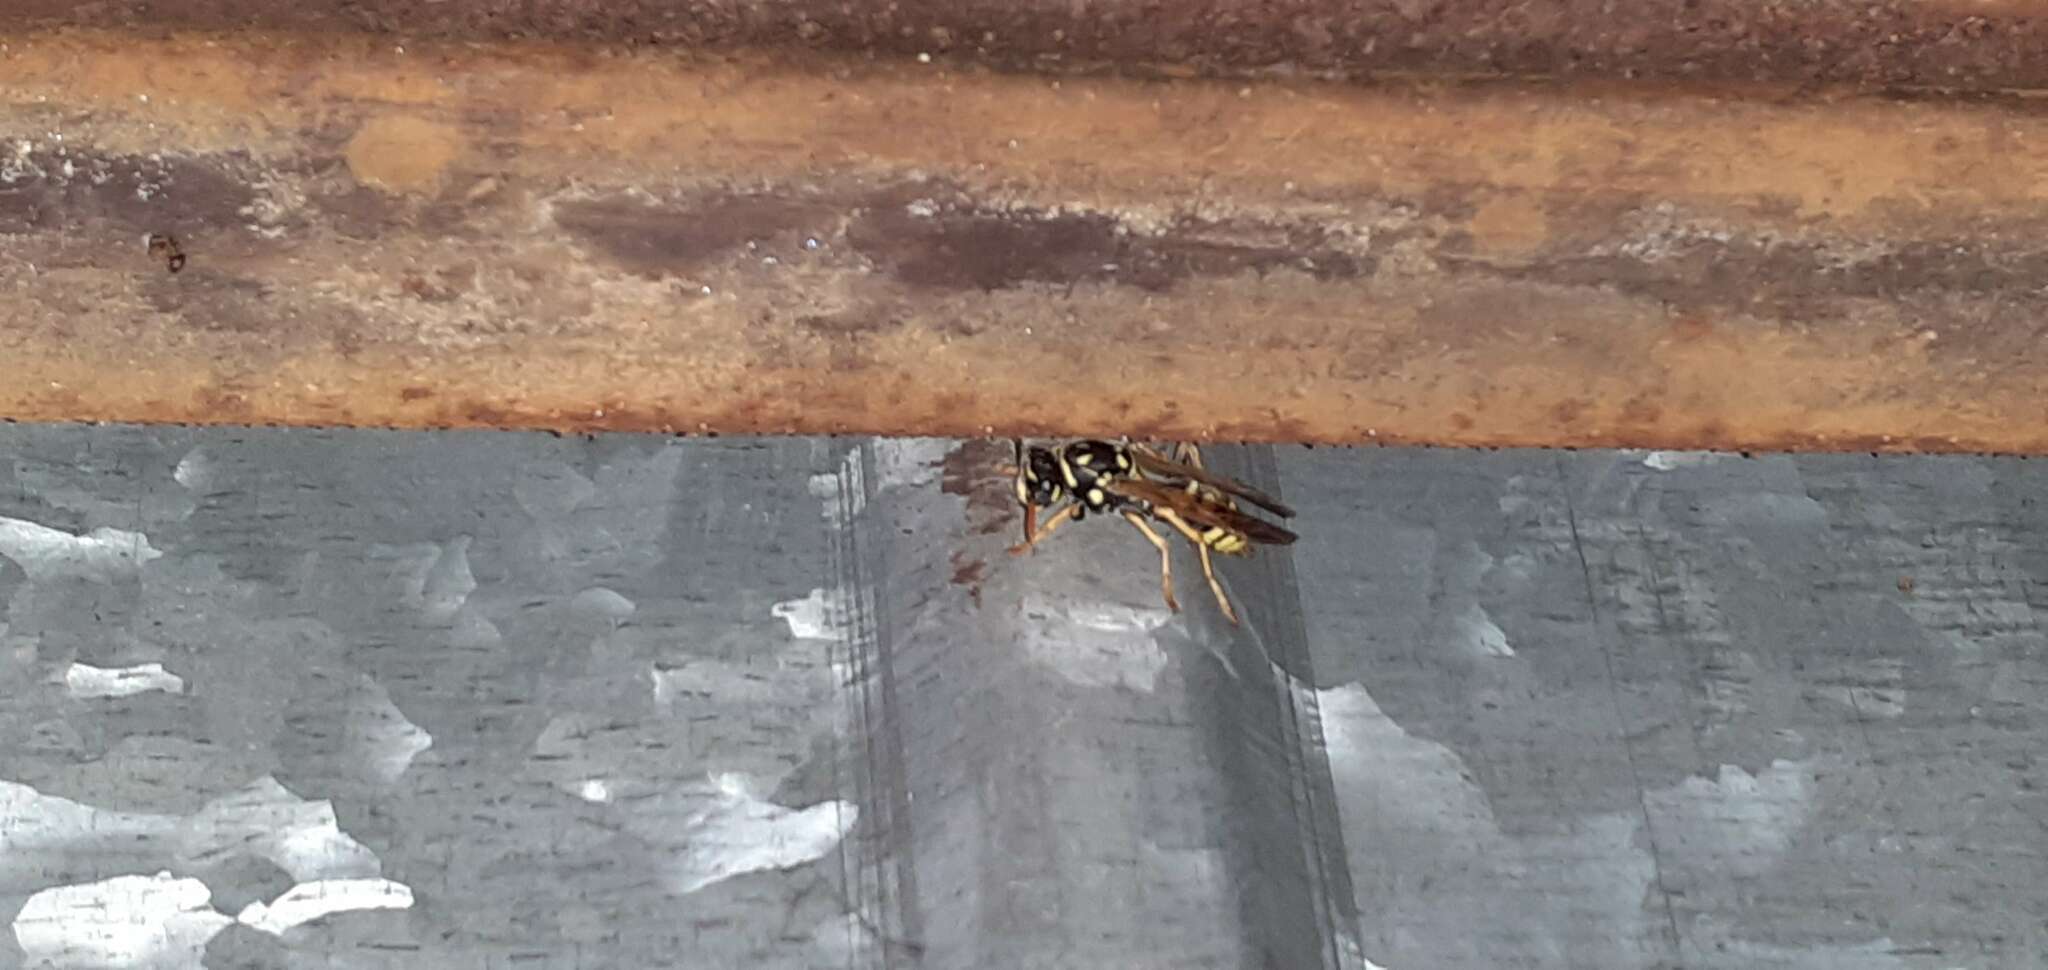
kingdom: Animalia
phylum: Arthropoda
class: Insecta
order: Hymenoptera
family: Eumenidae
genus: Polistes
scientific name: Polistes dominula
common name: Paper wasp
